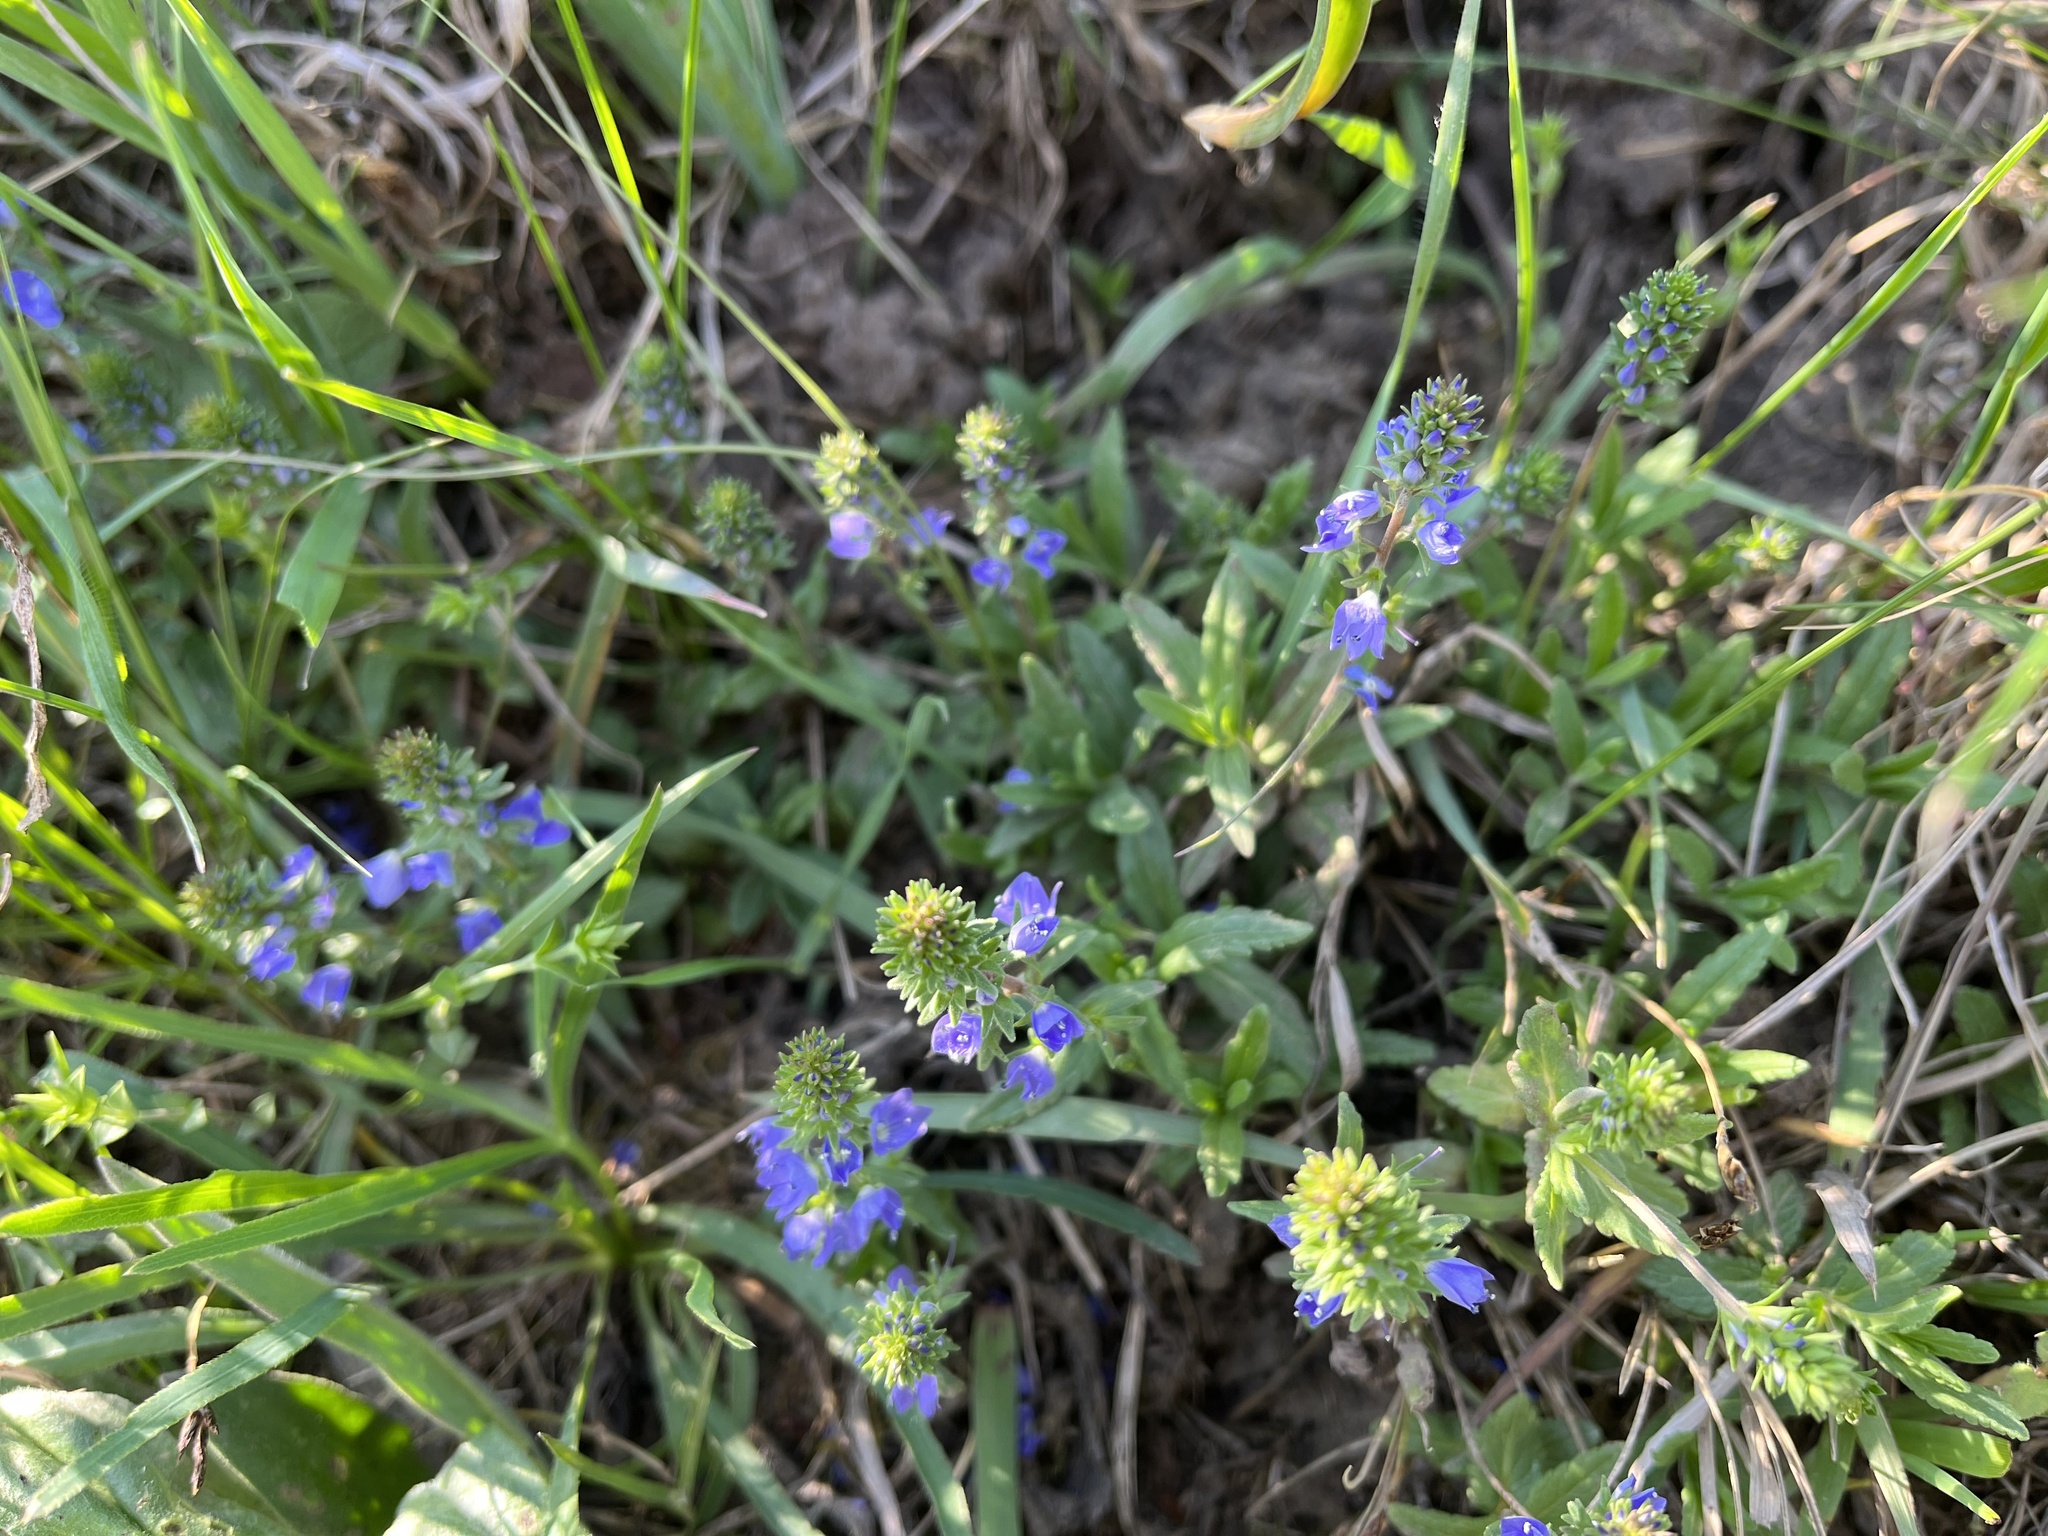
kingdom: Plantae
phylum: Tracheophyta
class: Magnoliopsida
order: Lamiales
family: Plantaginaceae
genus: Veronica
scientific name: Veronica prostrata
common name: Prostrate speedwell
